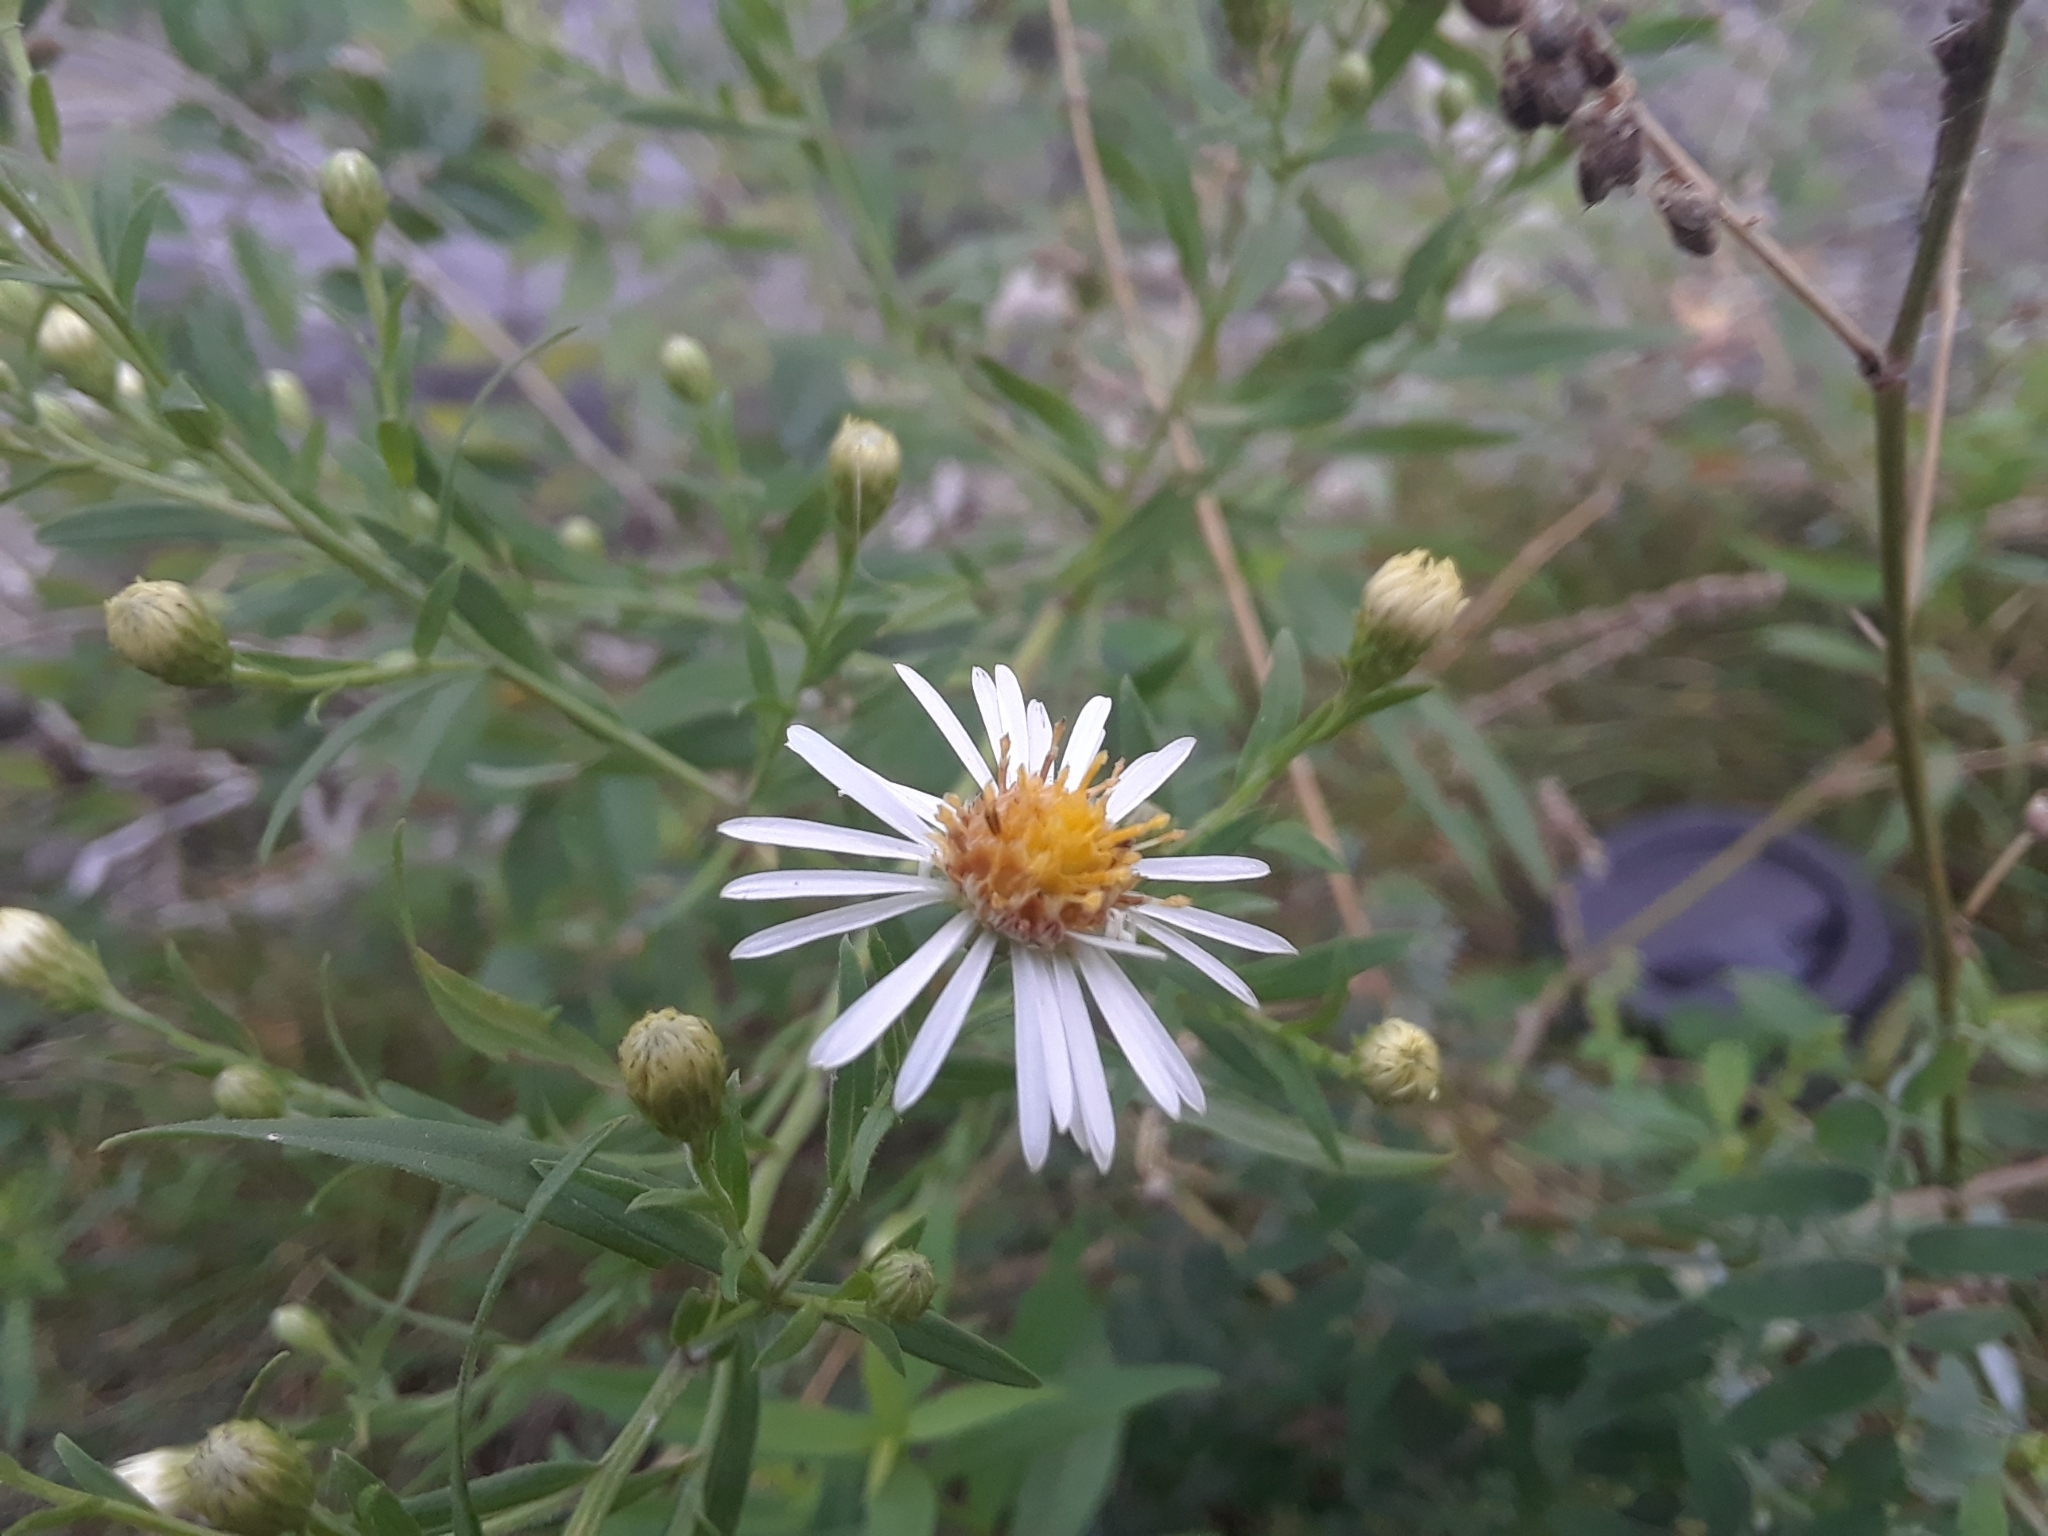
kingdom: Plantae
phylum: Tracheophyta
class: Magnoliopsida
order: Asterales
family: Asteraceae
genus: Symphyotrichum
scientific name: Symphyotrichum lanceolatum
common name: Panicled aster
